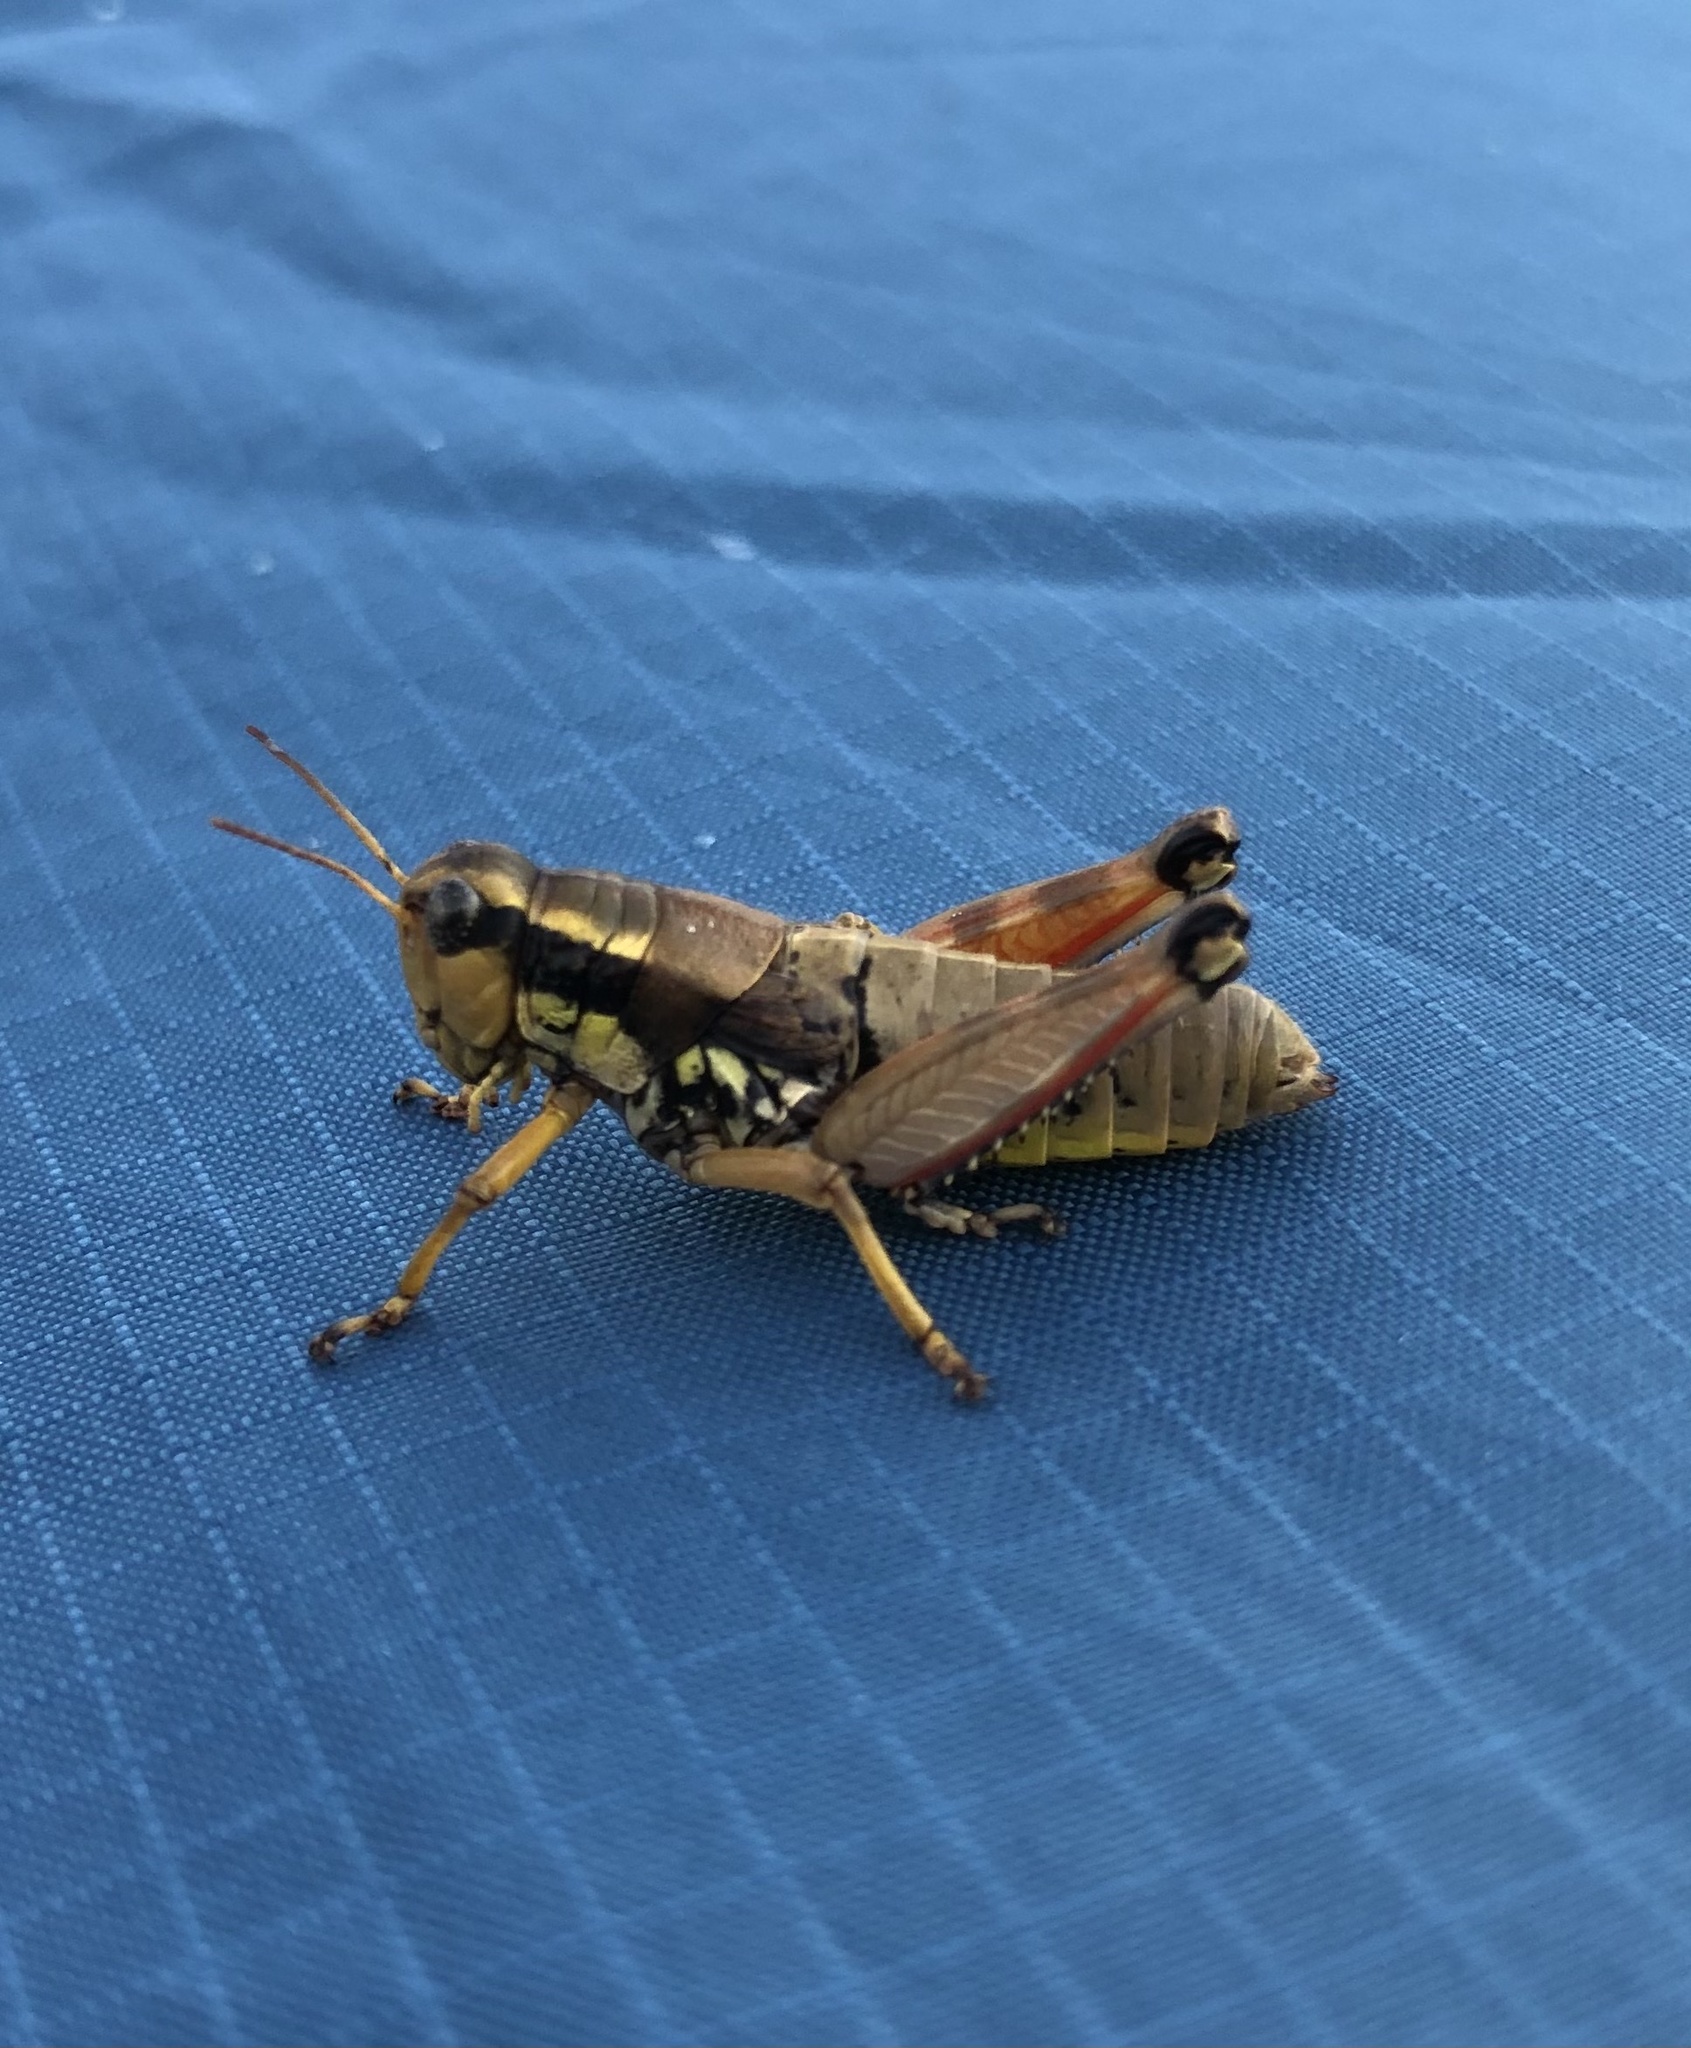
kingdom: Animalia
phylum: Arthropoda
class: Insecta
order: Orthoptera
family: Acrididae
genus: Podisma
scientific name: Podisma pedestris
